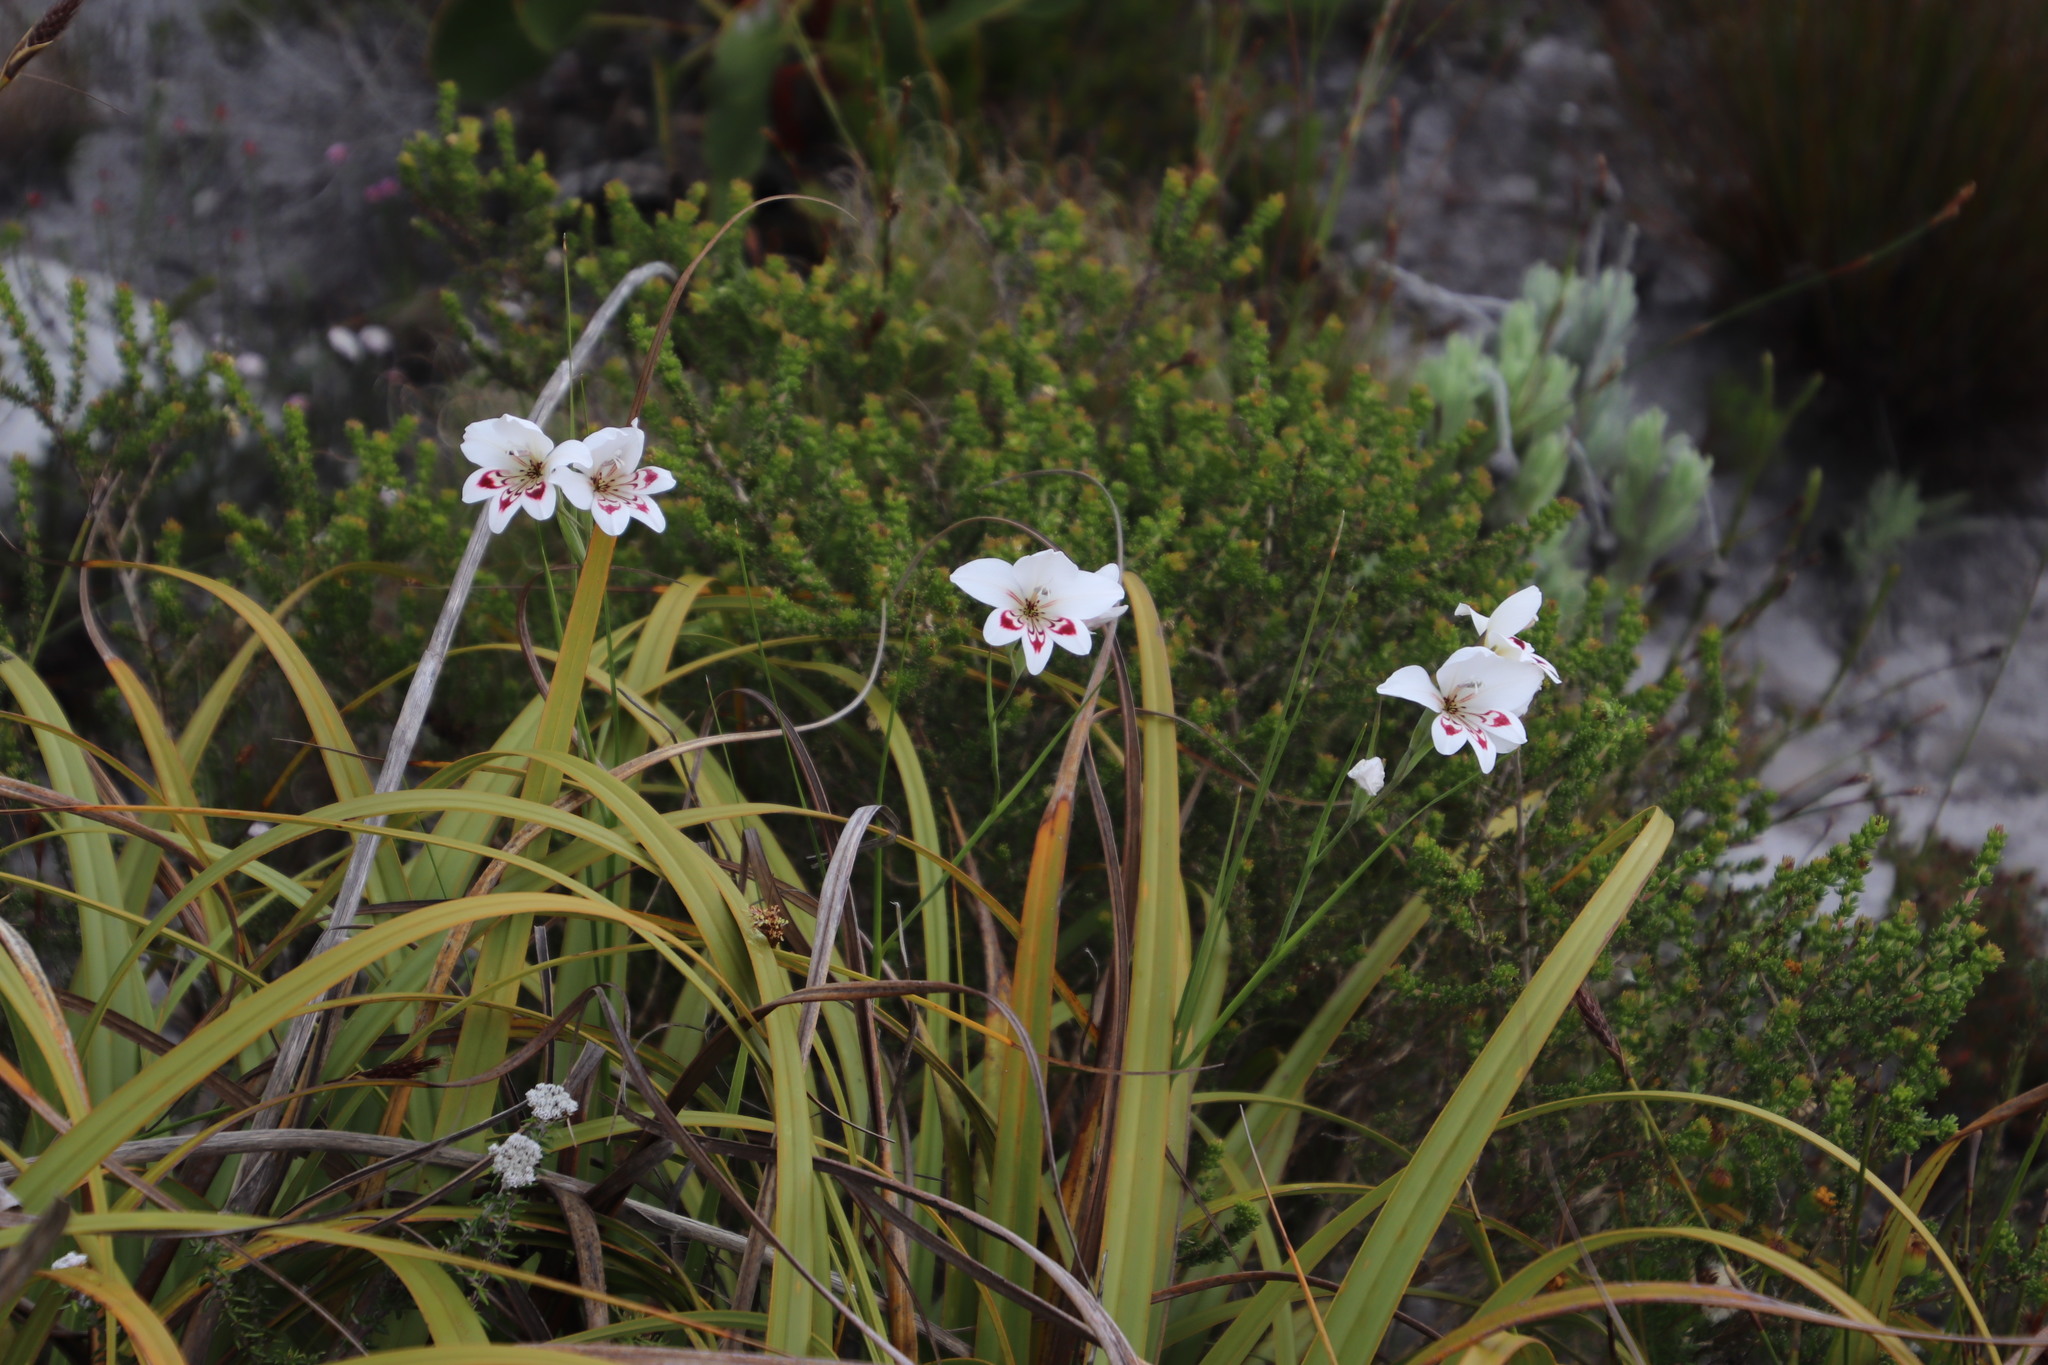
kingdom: Plantae
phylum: Tracheophyta
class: Liliopsida
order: Asparagales
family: Iridaceae
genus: Gladiolus
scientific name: Gladiolus debilis
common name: Painted-lady
